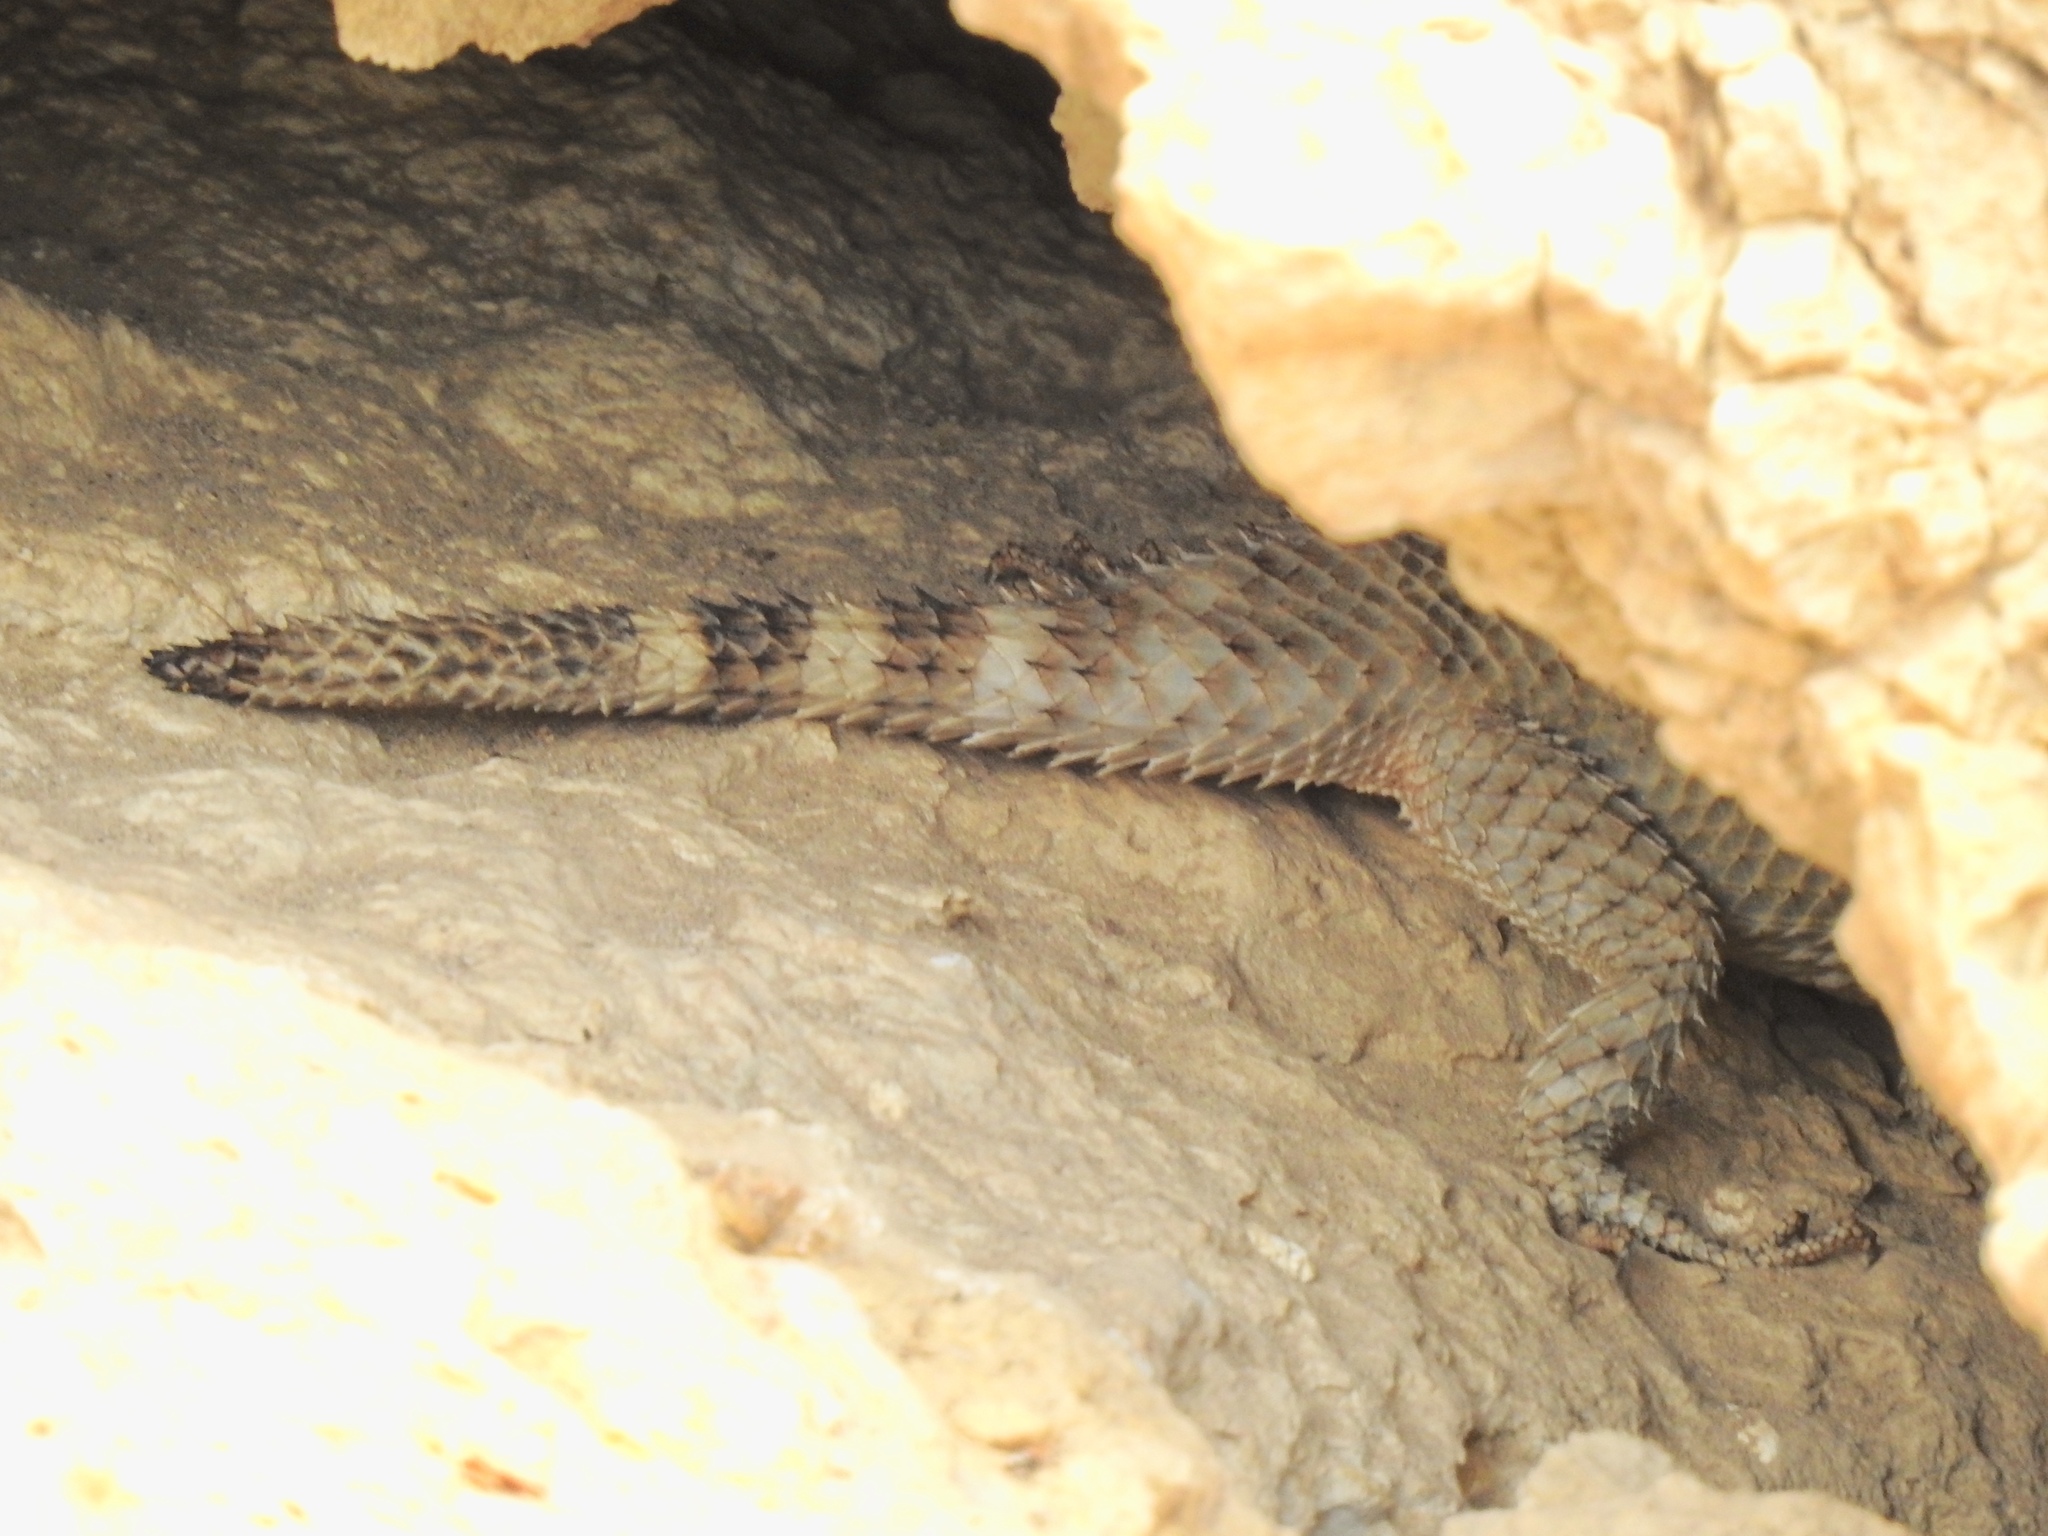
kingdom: Animalia
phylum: Chordata
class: Squamata
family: Phrynosomatidae
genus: Sceloporus
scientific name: Sceloporus poinsettii
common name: Crevice spiny lizard
